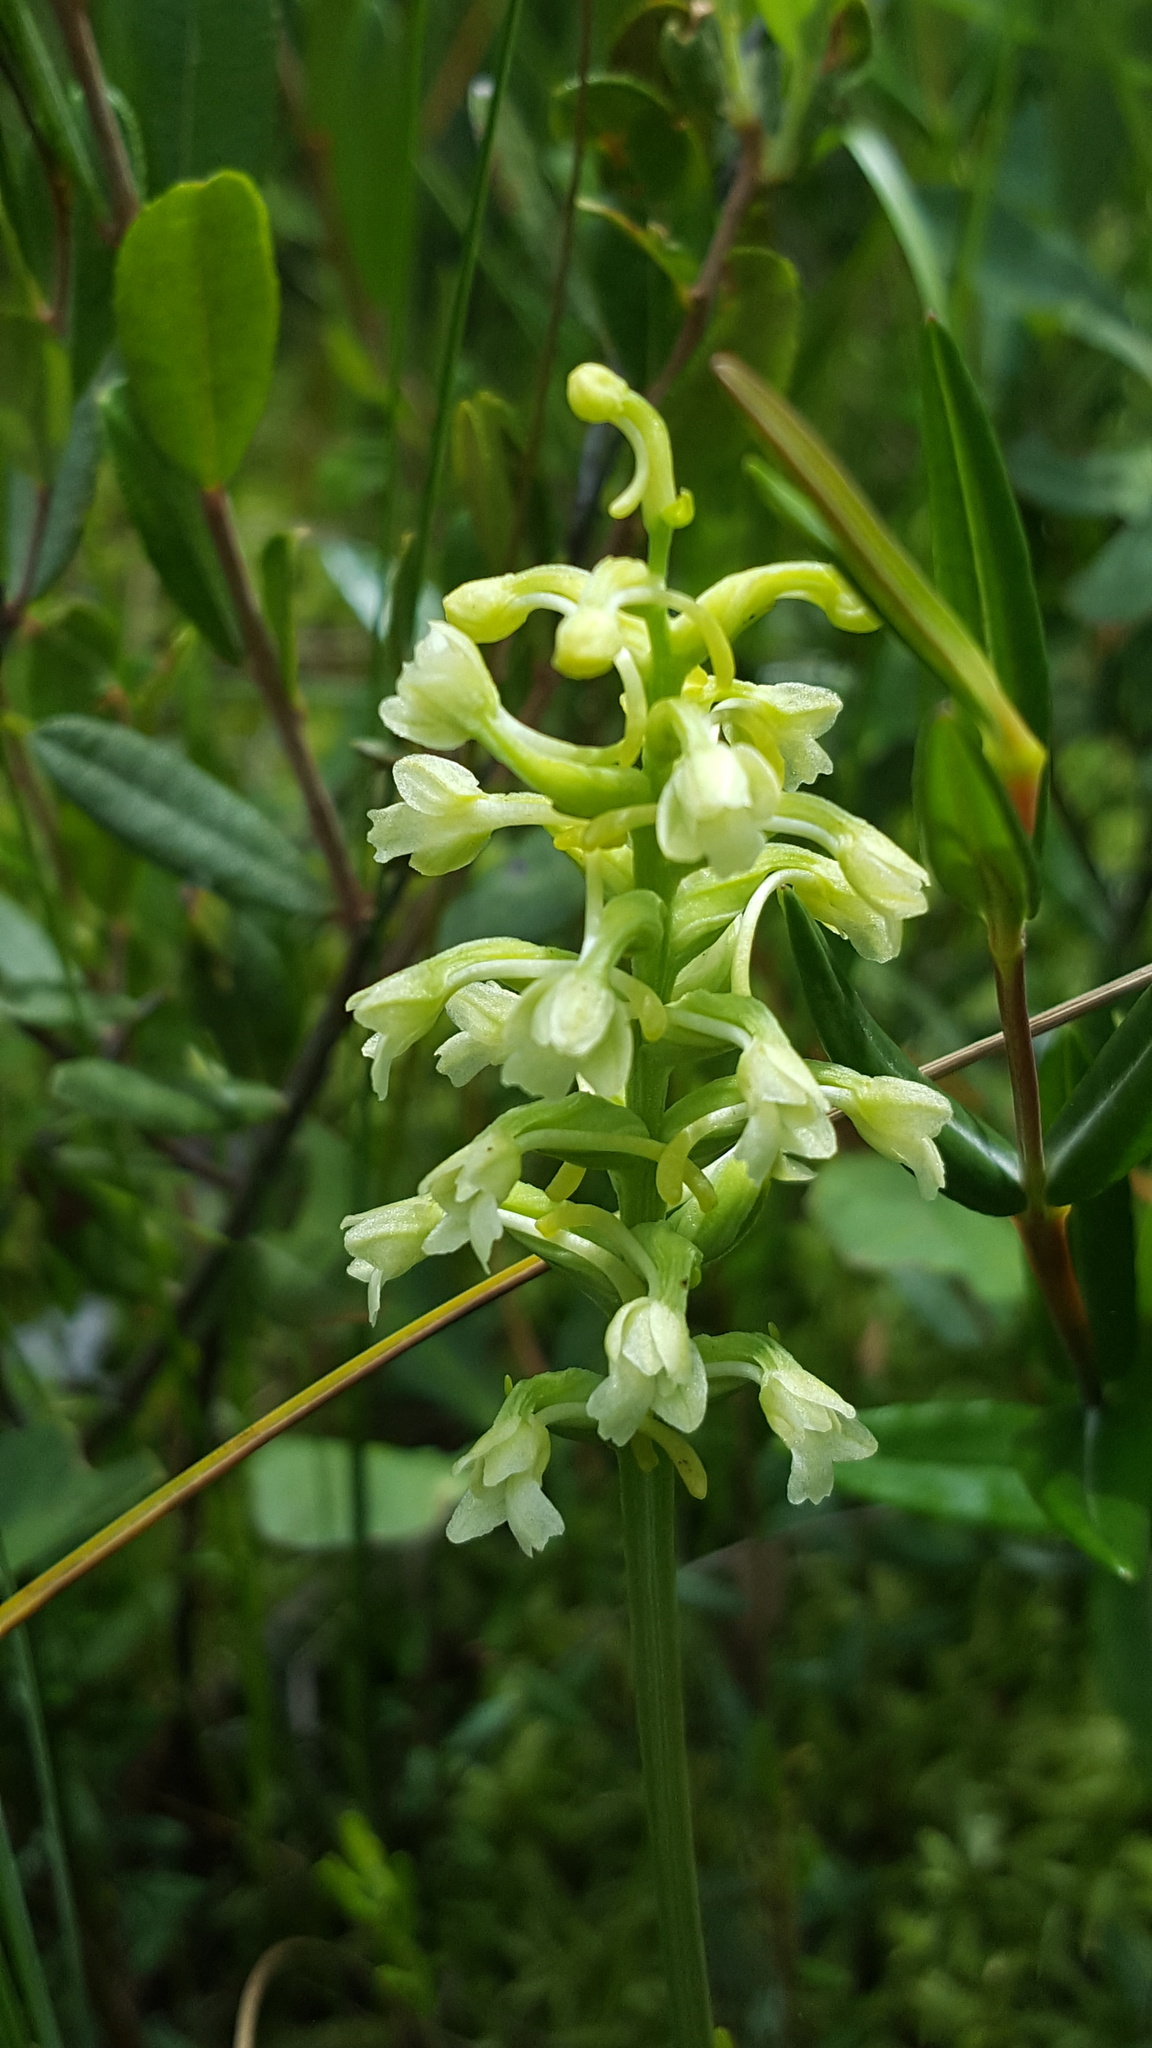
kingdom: Plantae
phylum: Tracheophyta
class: Liliopsida
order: Asparagales
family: Orchidaceae
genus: Platanthera
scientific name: Platanthera clavellata
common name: Club-spur orchid
